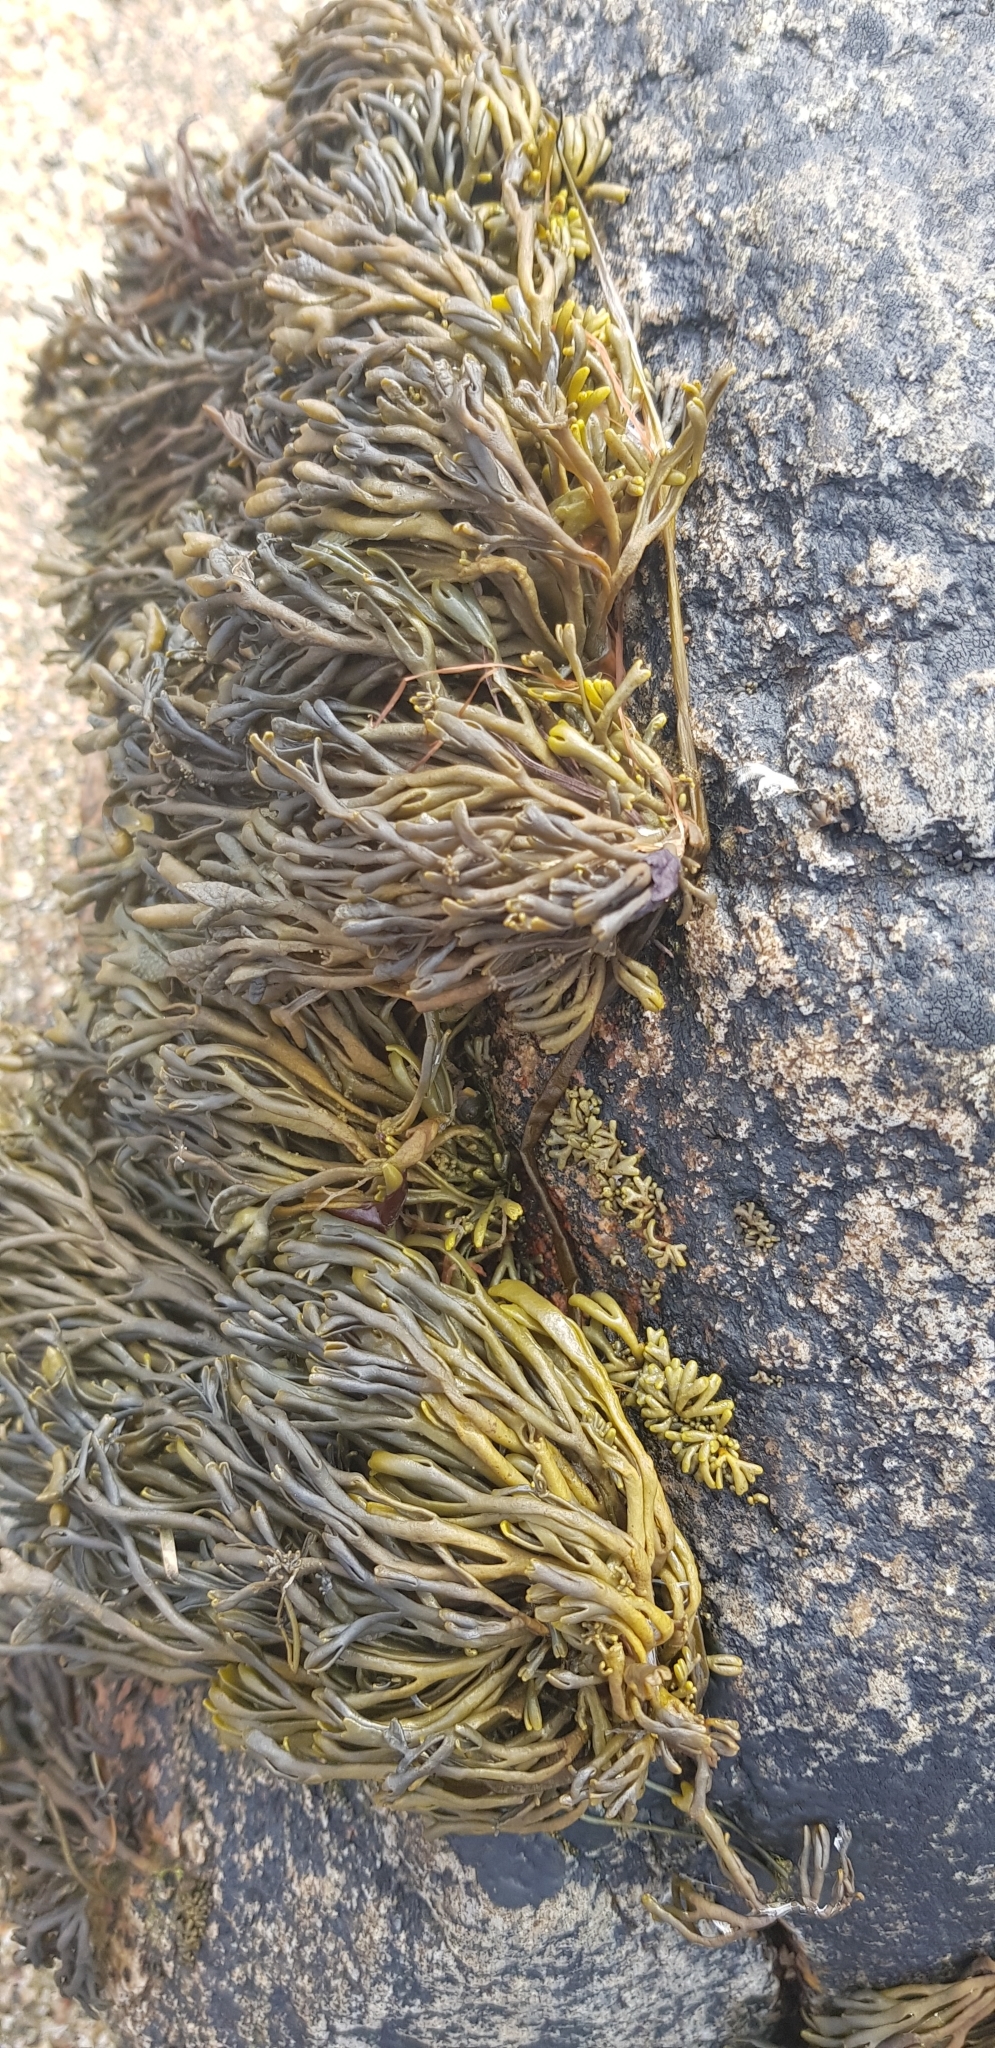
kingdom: Chromista
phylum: Ochrophyta
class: Phaeophyceae
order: Fucales
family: Fucaceae
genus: Pelvetia
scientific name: Pelvetia canaliculata
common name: Channelled wrack
